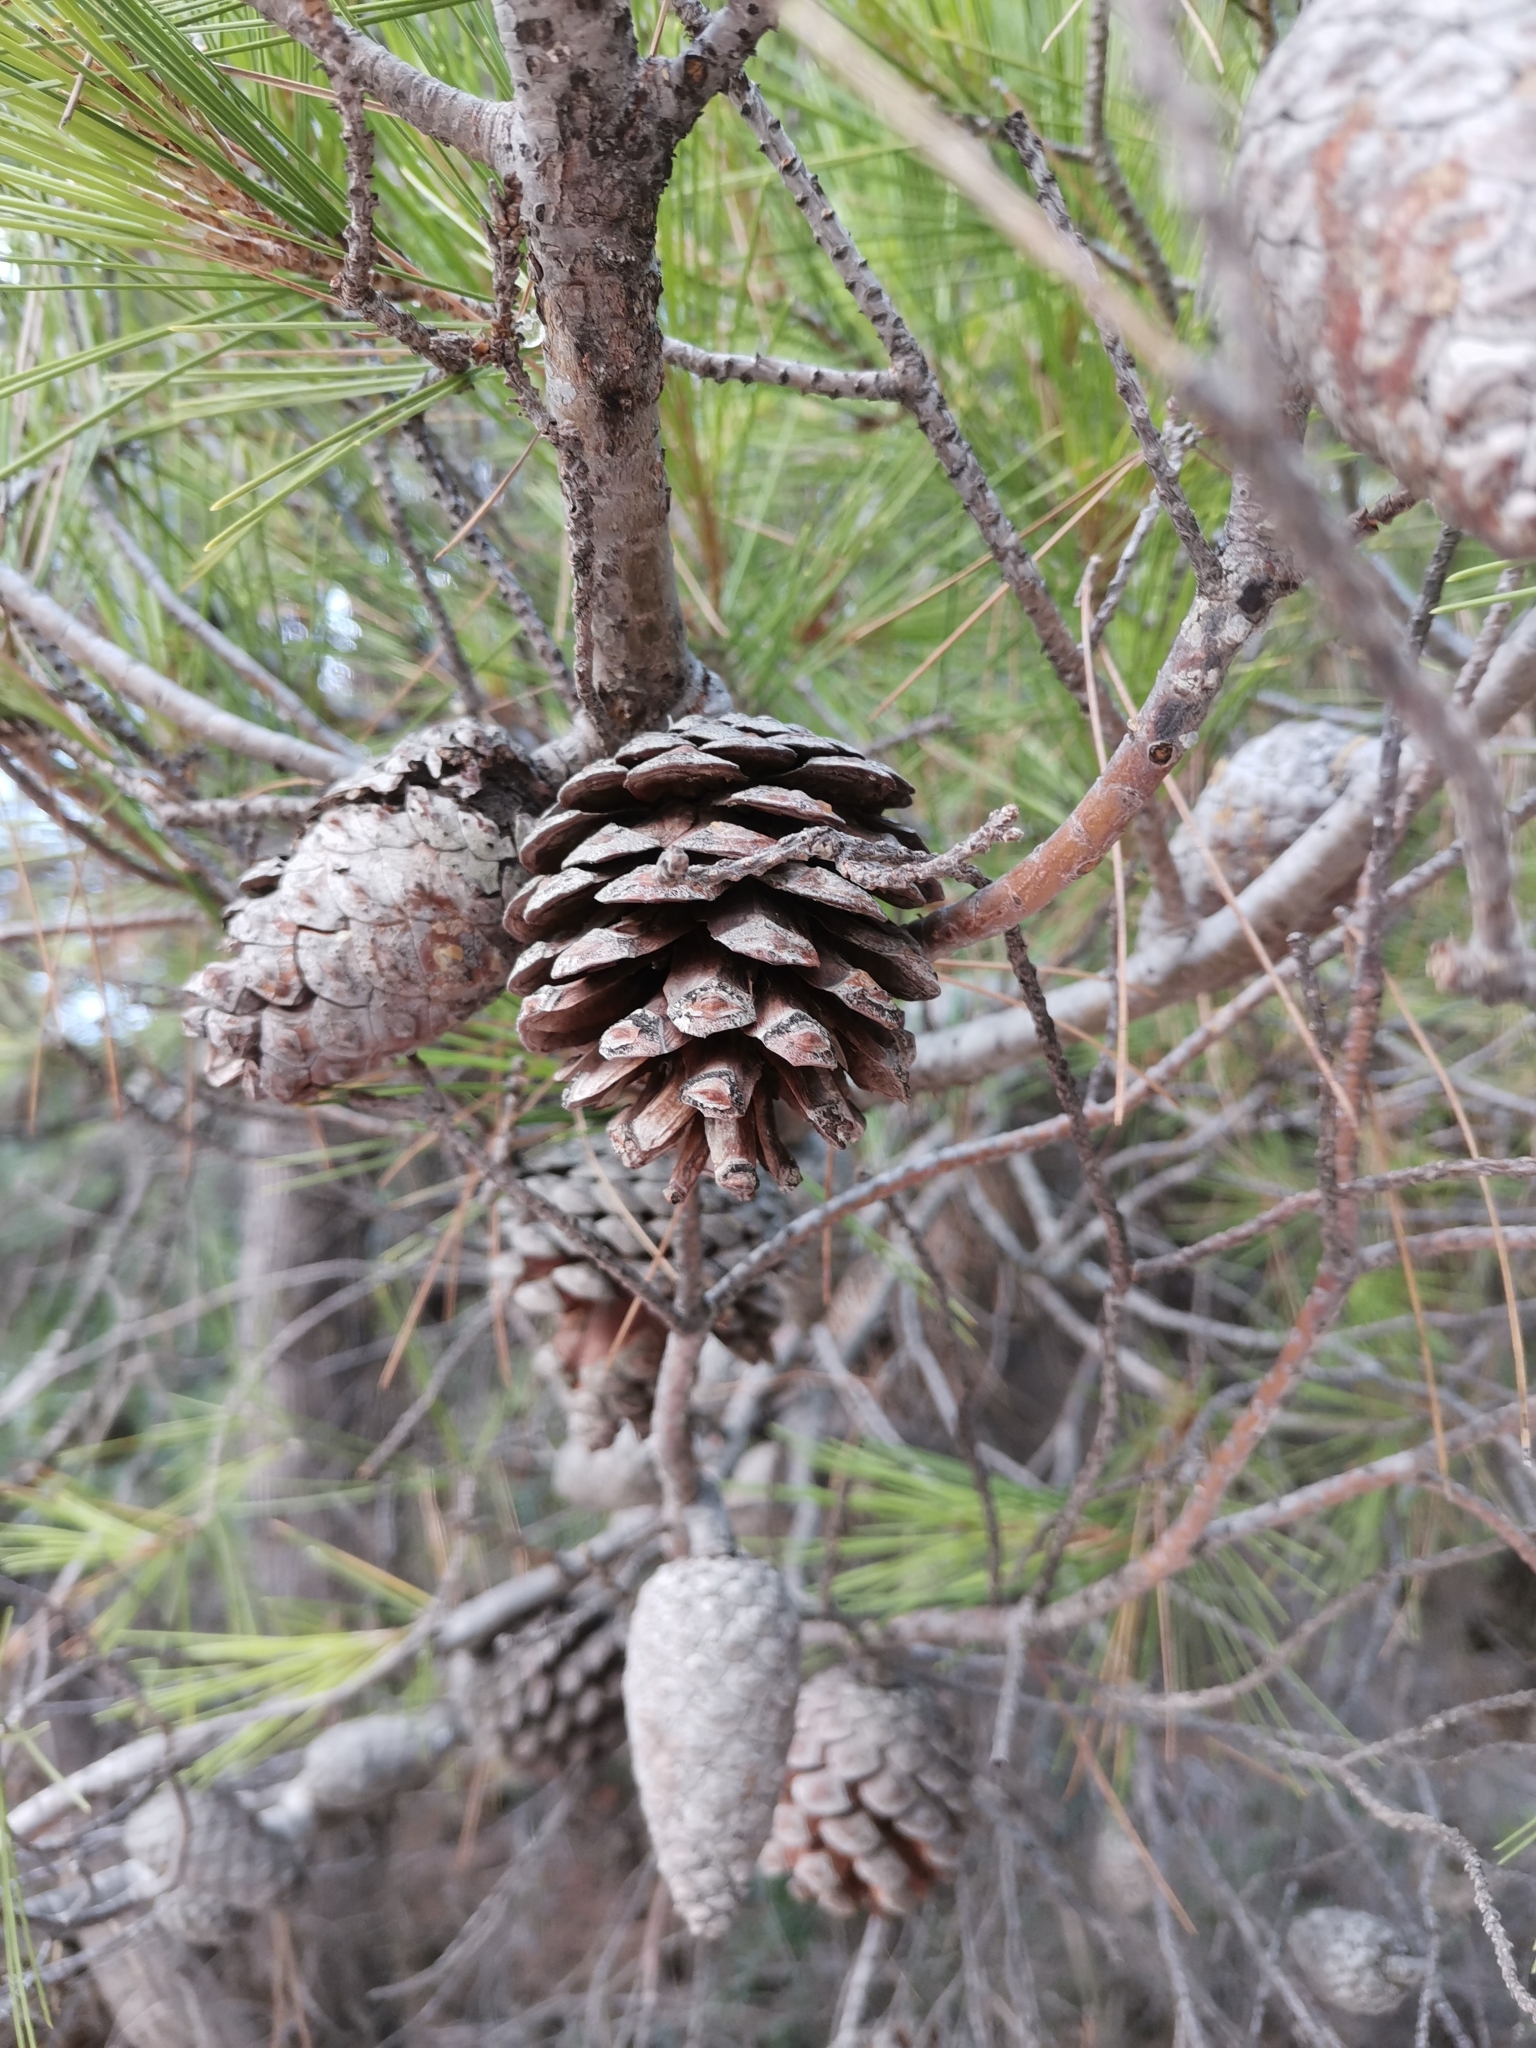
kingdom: Plantae
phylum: Tracheophyta
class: Pinopsida
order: Pinales
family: Pinaceae
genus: Pinus
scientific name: Pinus halepensis
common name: Aleppo pine
